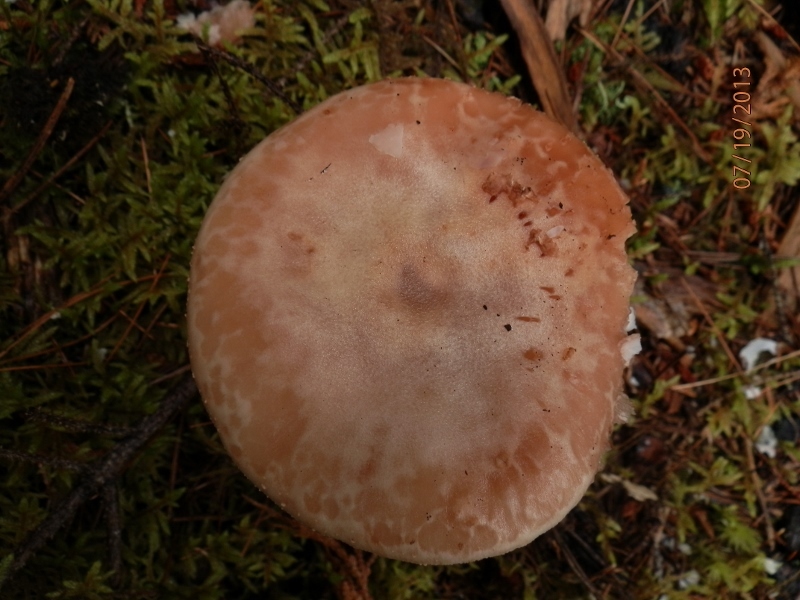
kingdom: Fungi
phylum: Basidiomycota
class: Agaricomycetes
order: Agaricales
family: Amanitaceae
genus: Amanita
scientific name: Amanita rubescens
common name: Blusher
